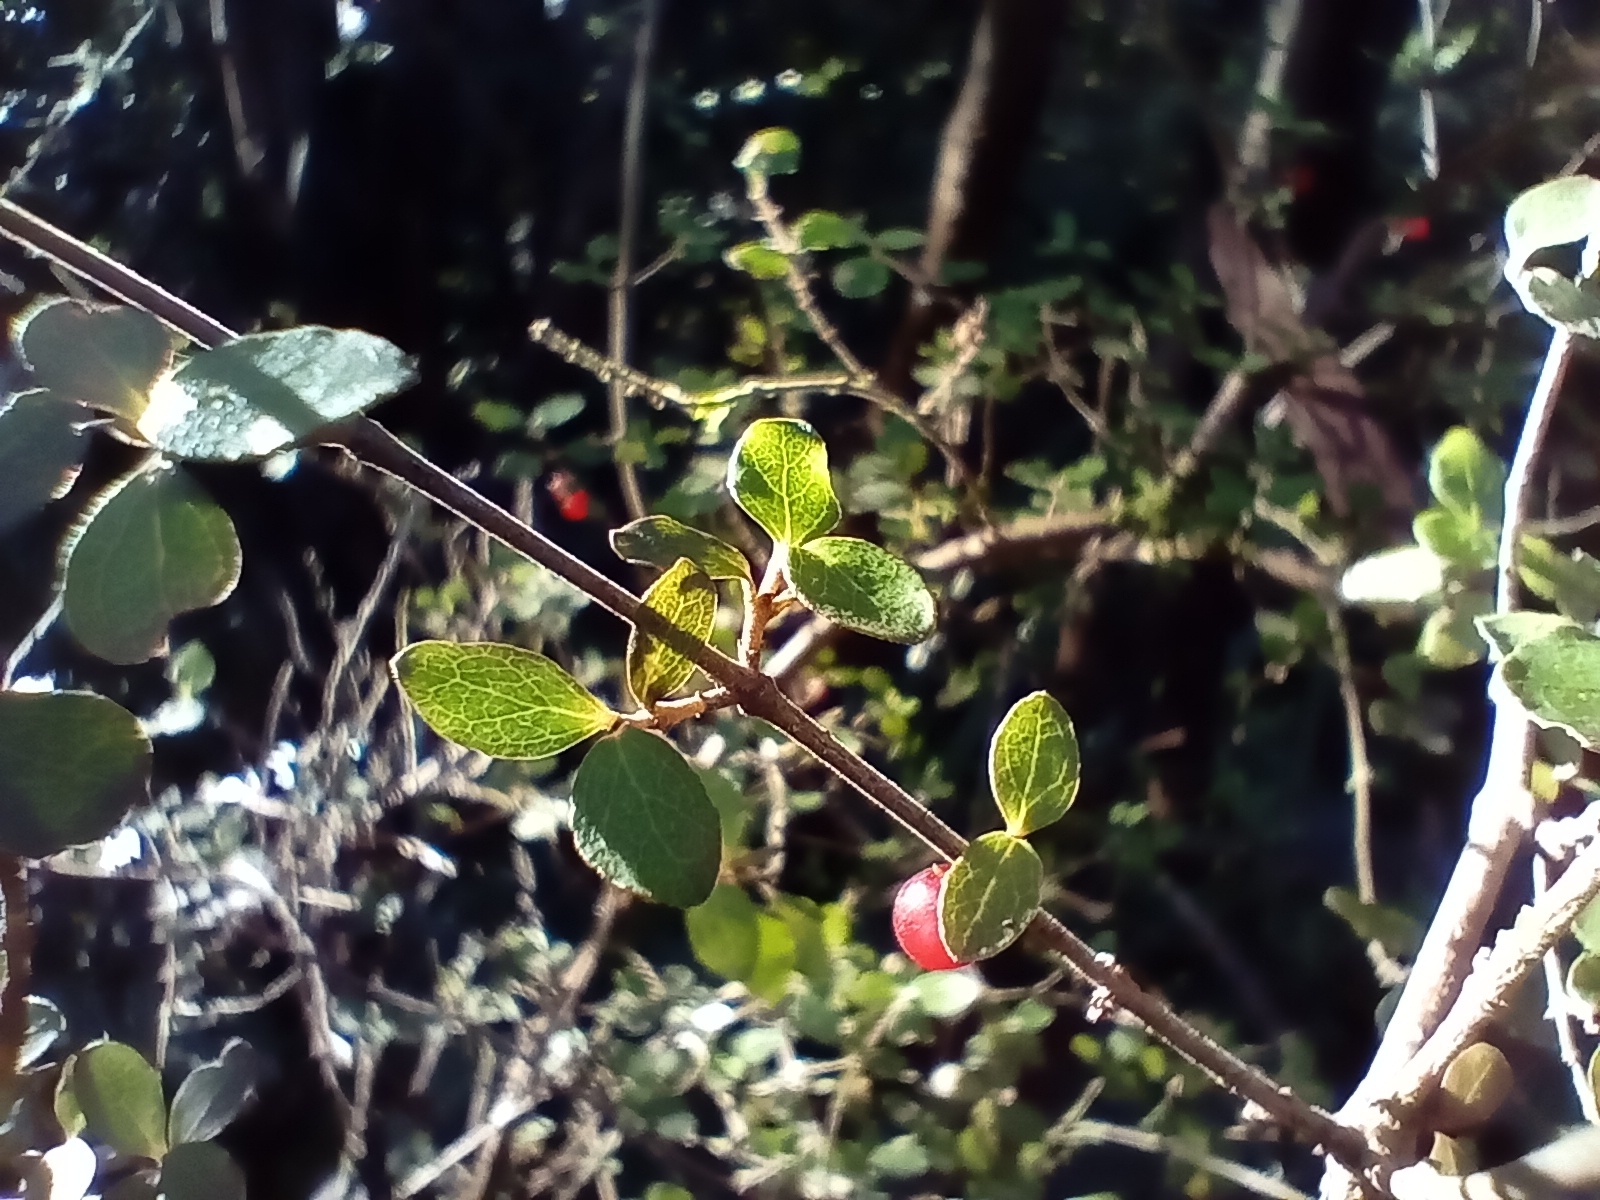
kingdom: Plantae
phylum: Tracheophyta
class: Magnoliopsida
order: Gentianales
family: Rubiaceae
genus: Coprosma
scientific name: Coprosma rhamnoides
